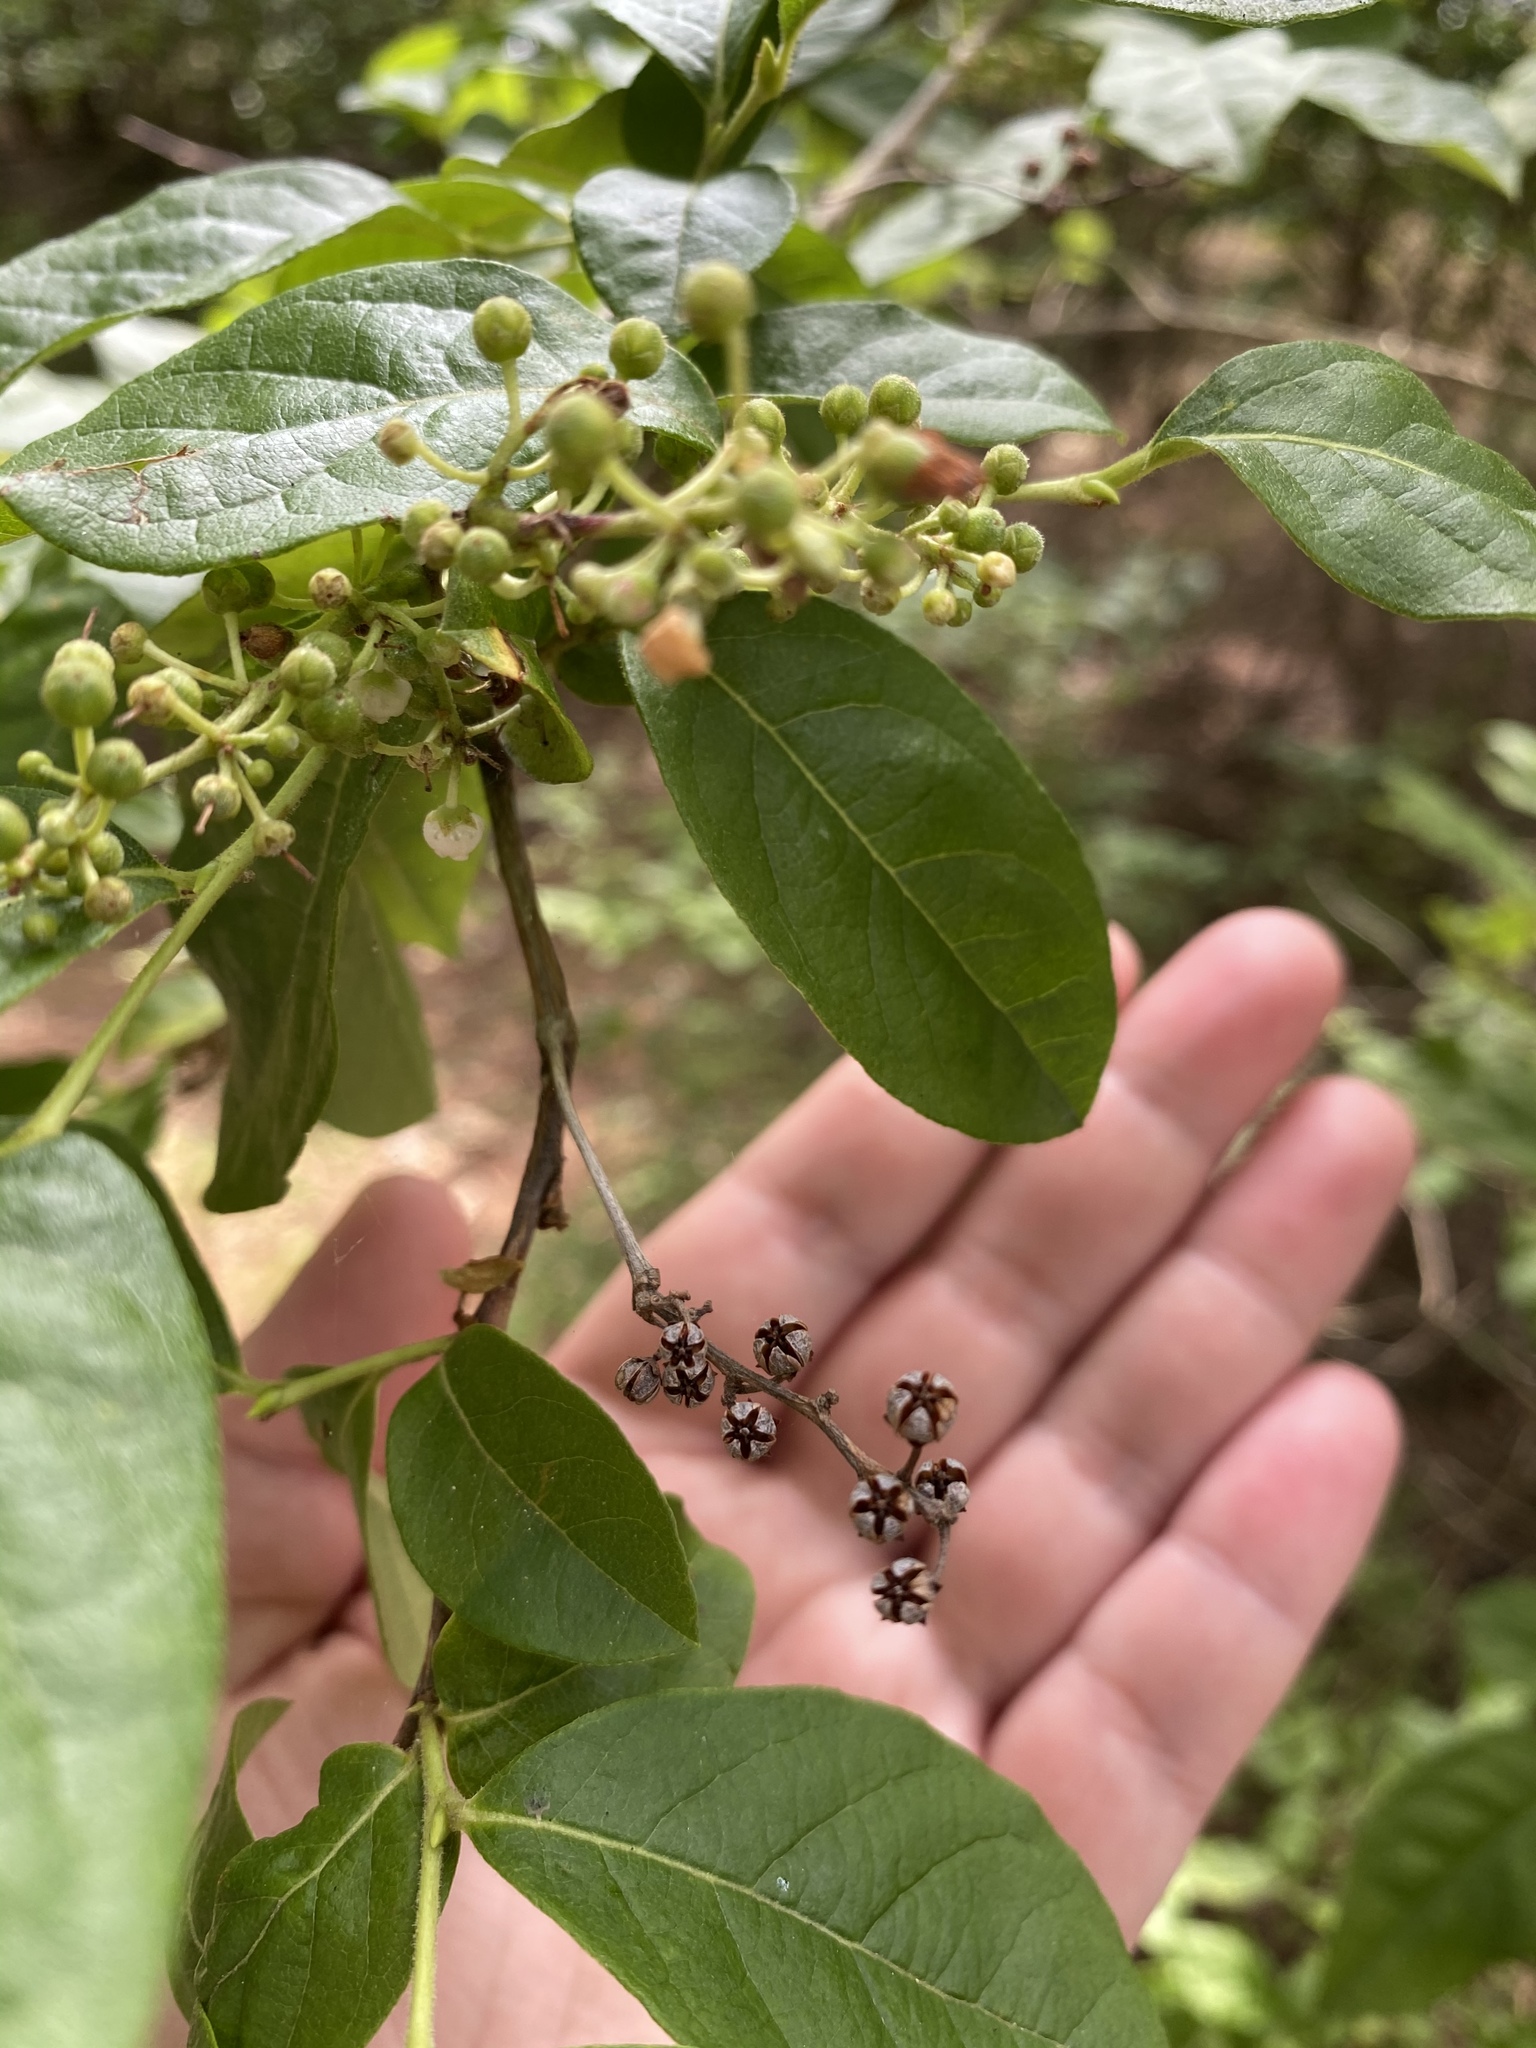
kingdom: Plantae
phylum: Tracheophyta
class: Magnoliopsida
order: Ericales
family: Ericaceae
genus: Lyonia
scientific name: Lyonia ligustrina
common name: Maleberry
